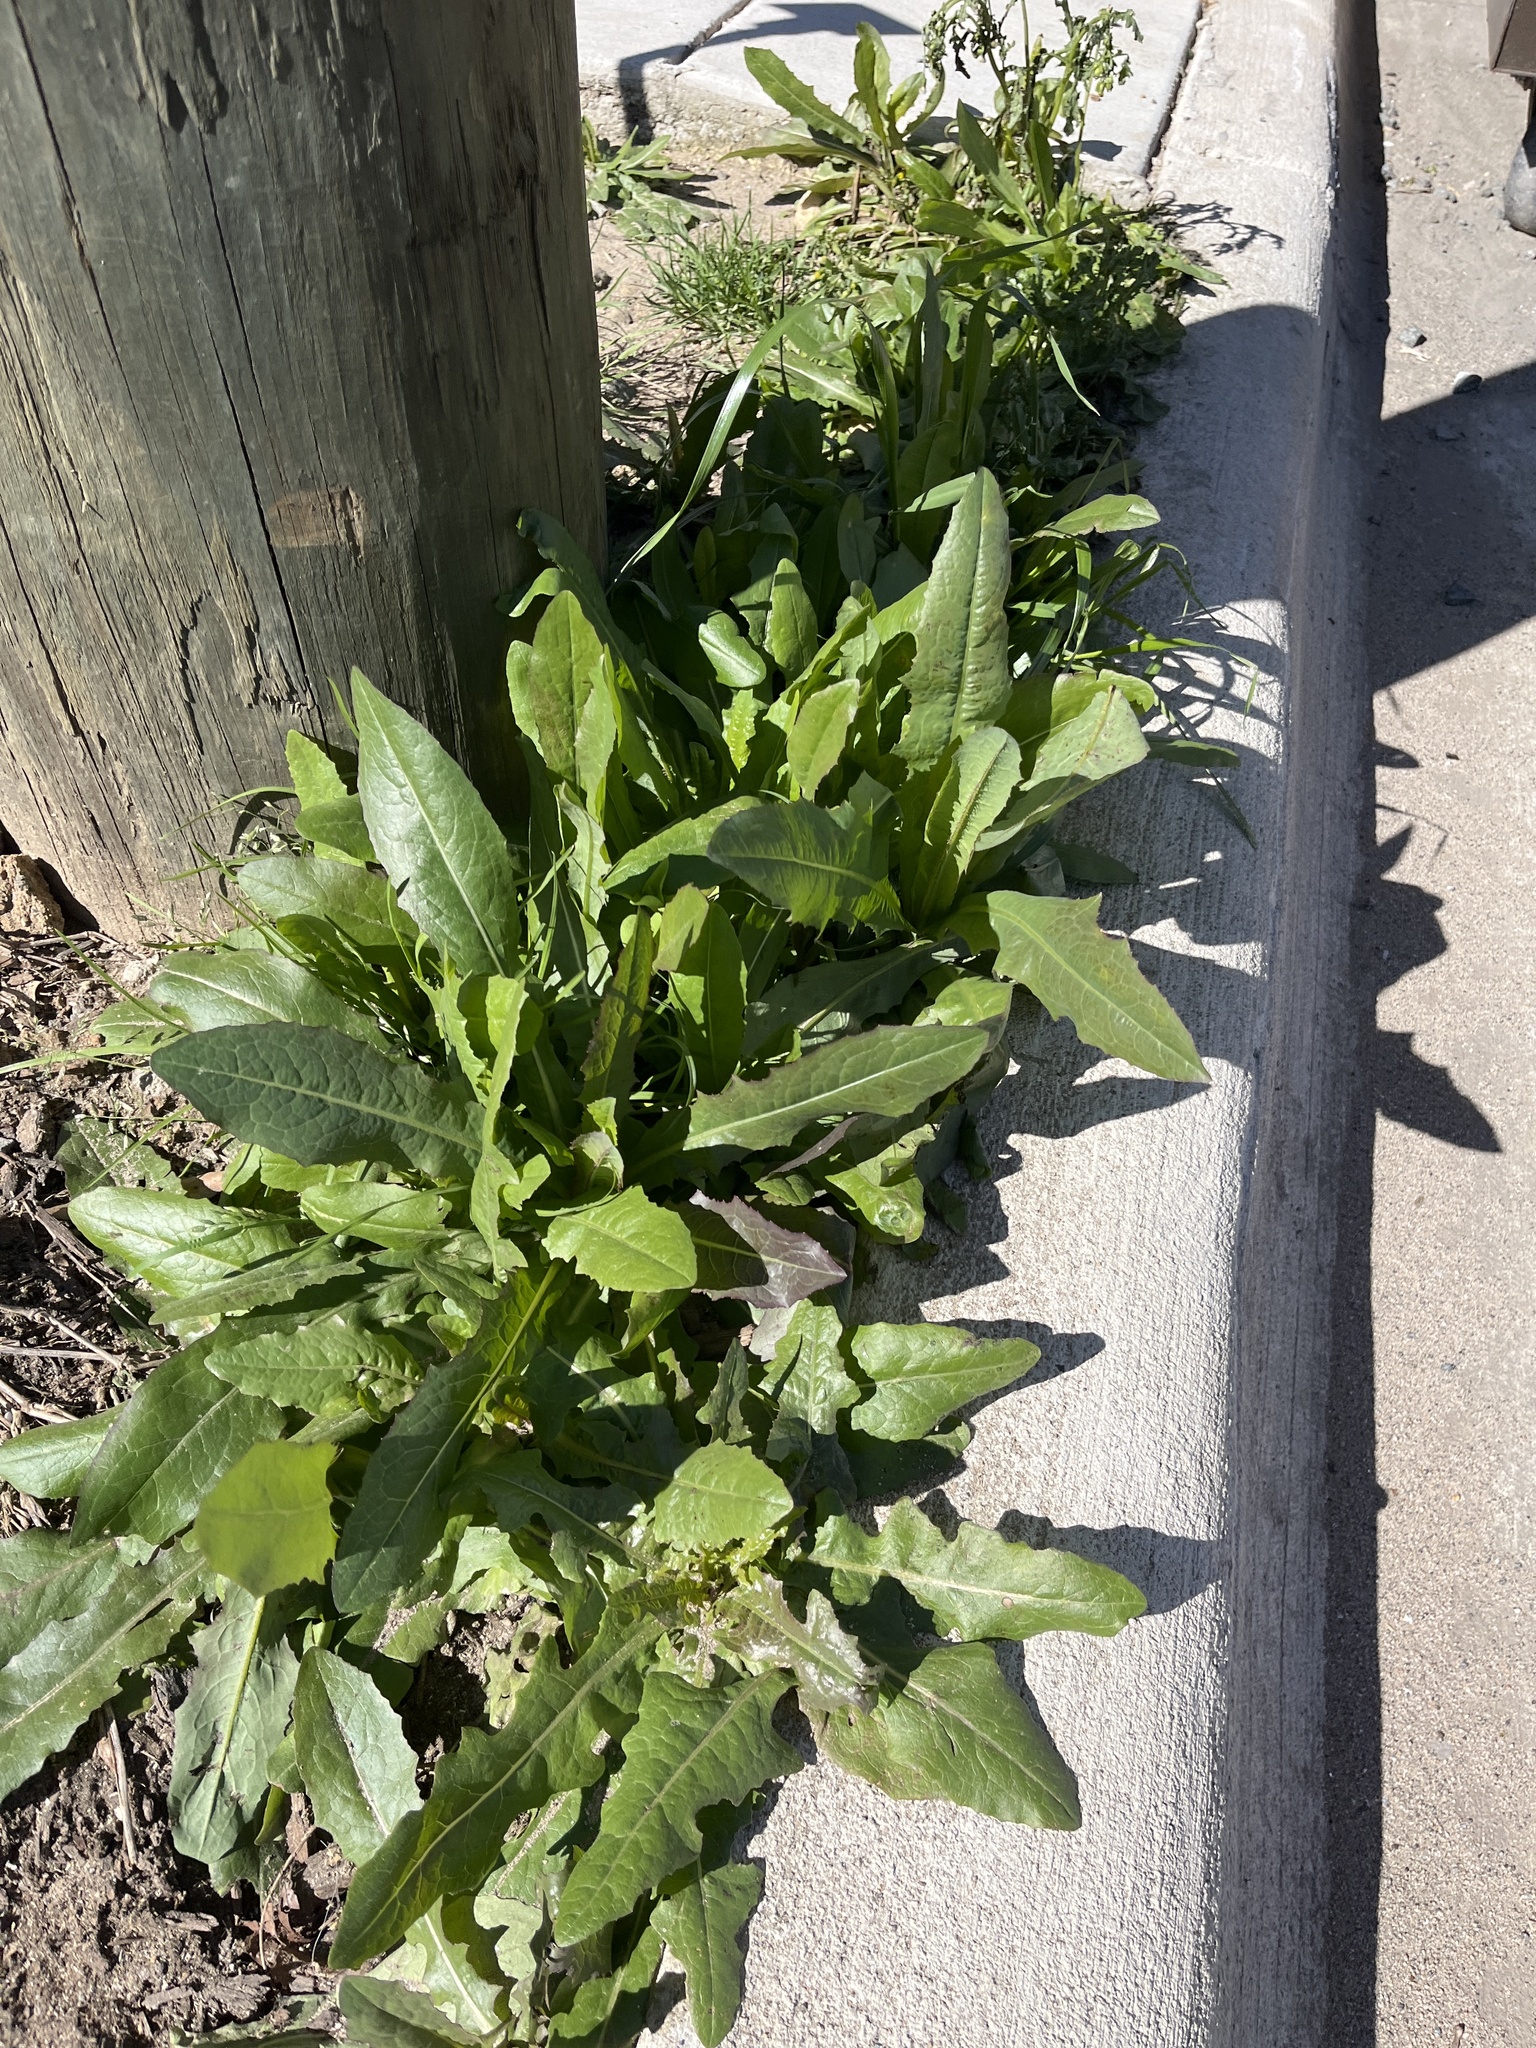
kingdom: Plantae
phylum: Tracheophyta
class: Magnoliopsida
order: Asterales
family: Asteraceae
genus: Lactuca
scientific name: Lactuca serriola
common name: Prickly lettuce
